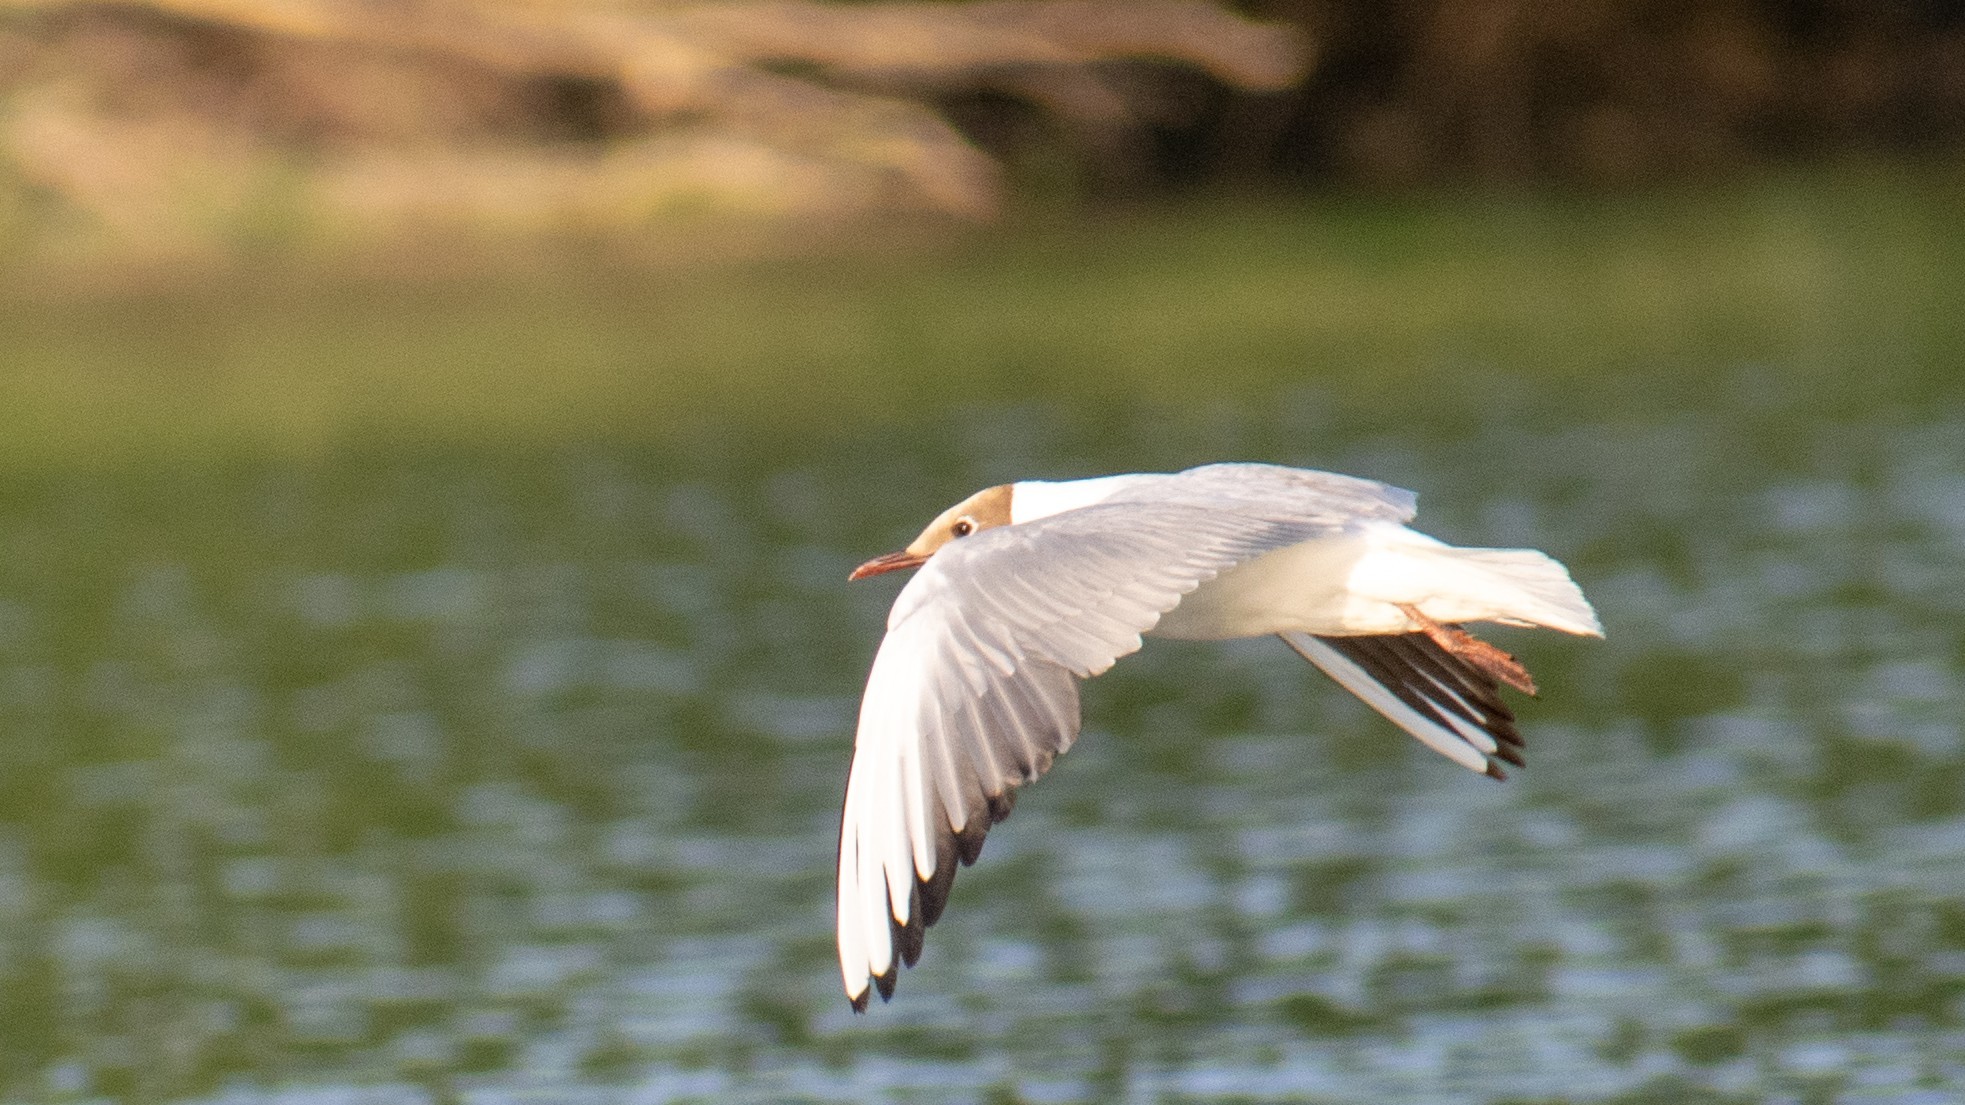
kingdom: Animalia
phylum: Chordata
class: Aves
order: Charadriiformes
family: Laridae
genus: Chroicocephalus
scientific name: Chroicocephalus ridibundus
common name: Black-headed gull
